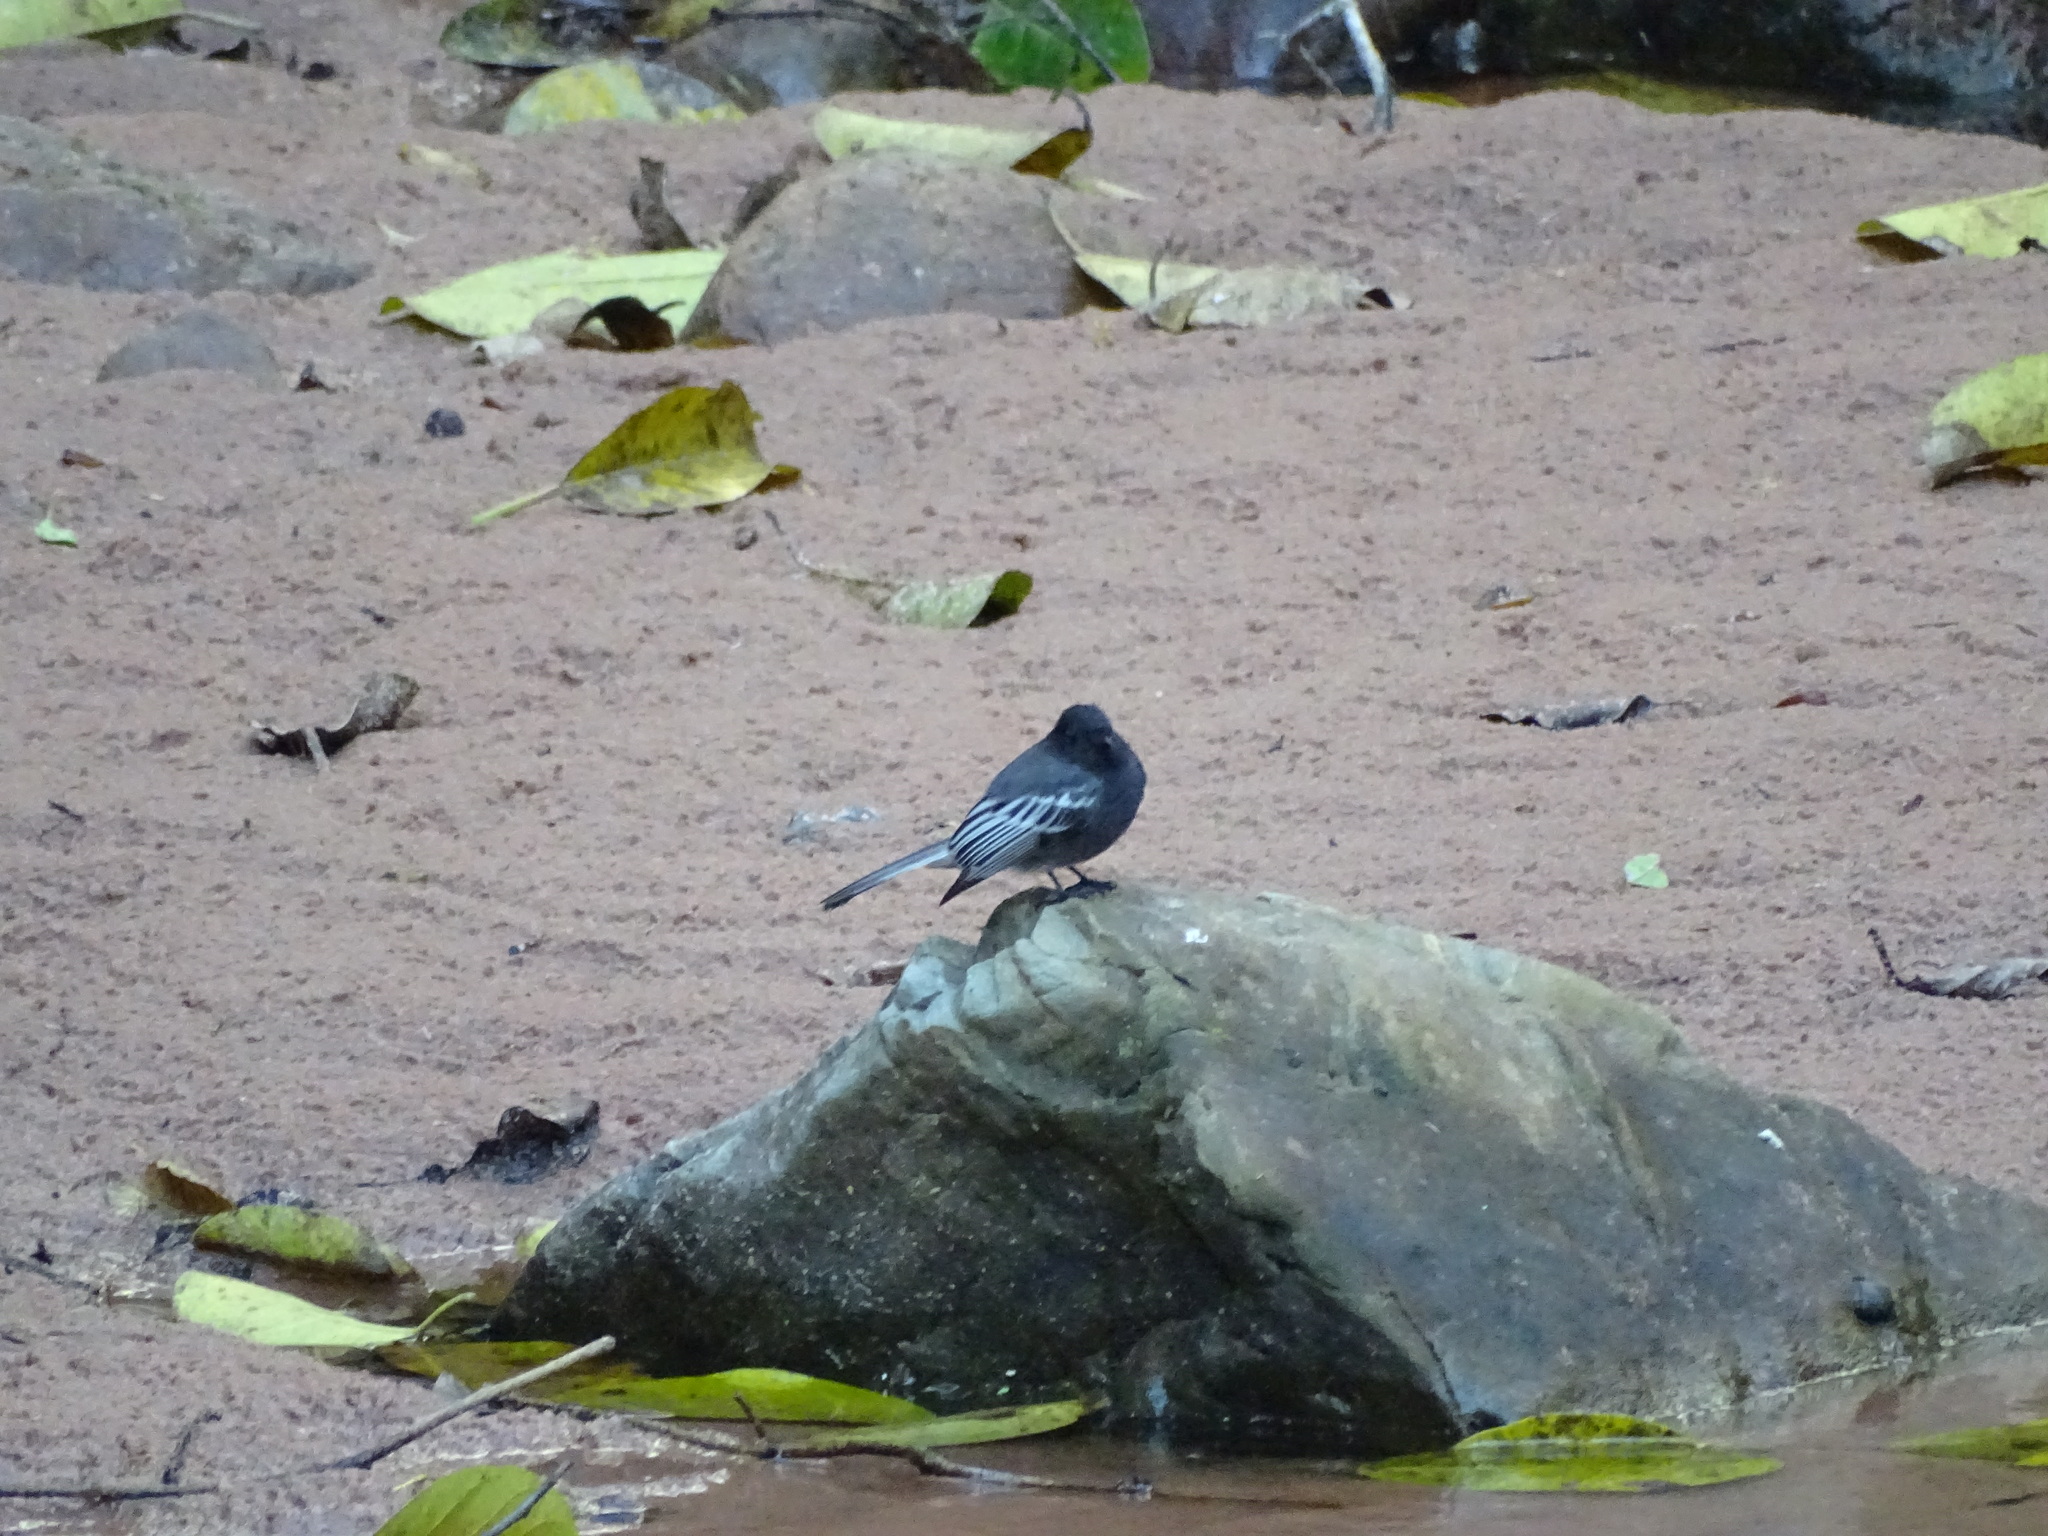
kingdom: Animalia
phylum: Chordata
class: Aves
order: Passeriformes
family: Tyrannidae
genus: Sayornis
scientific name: Sayornis nigricans
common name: Black phoebe
